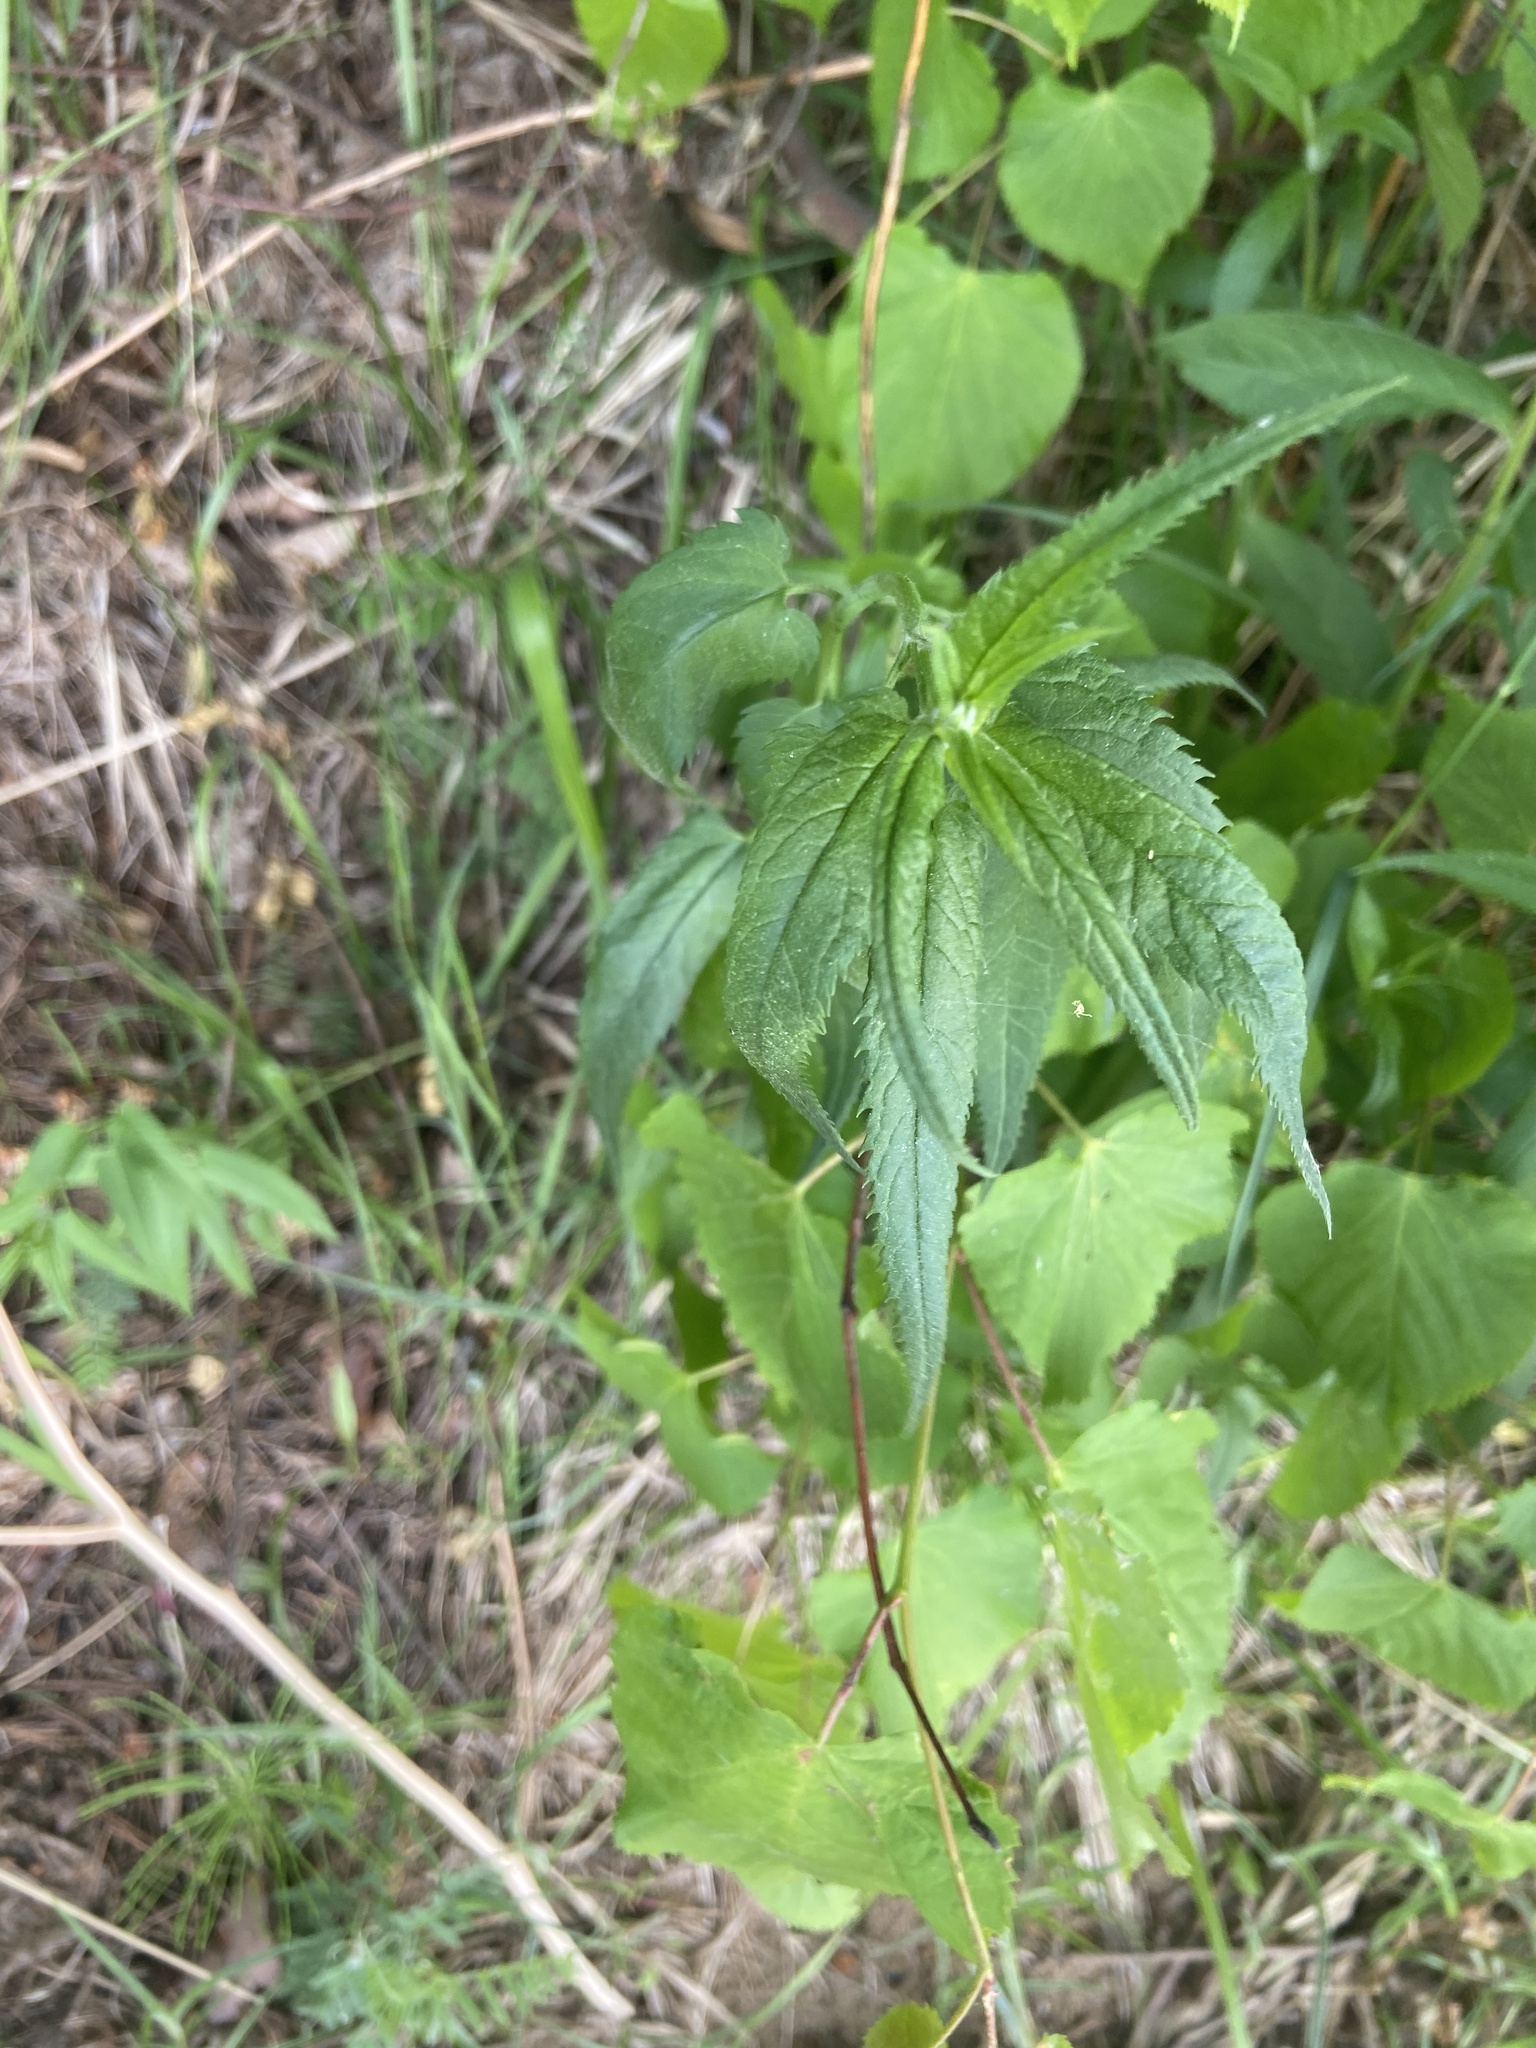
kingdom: Plantae
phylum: Tracheophyta
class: Magnoliopsida
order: Lamiales
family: Plantaginaceae
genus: Veronica
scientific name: Veronica longifolia
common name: Garden speedwell
